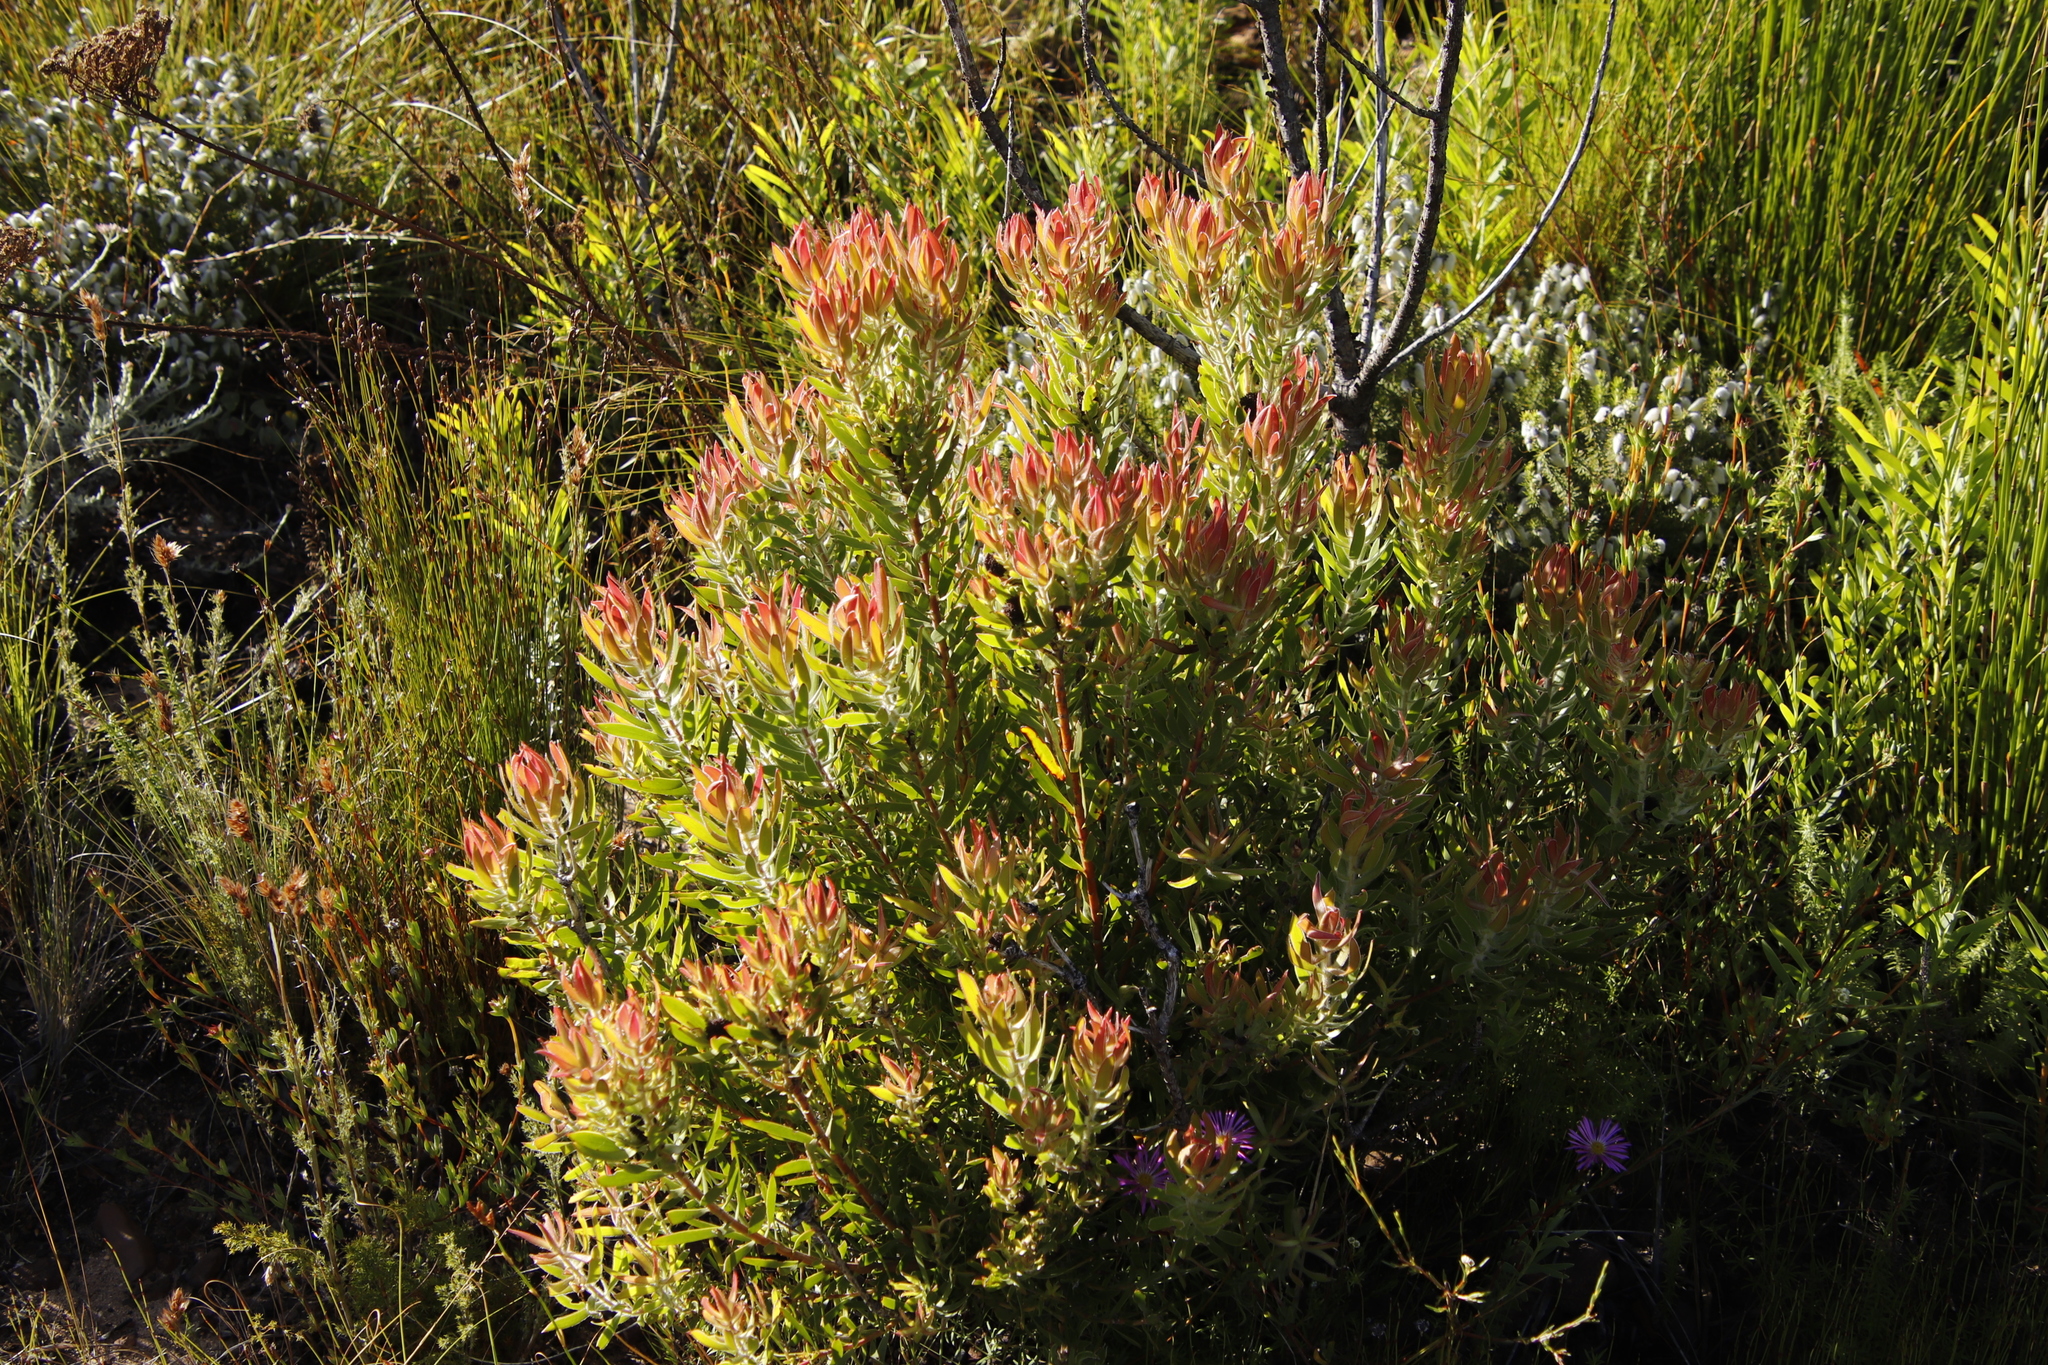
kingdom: Plantae
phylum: Tracheophyta
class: Magnoliopsida
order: Proteales
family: Proteaceae
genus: Leucadendron
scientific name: Leucadendron spissifolium
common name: Spear-leaf conebush
